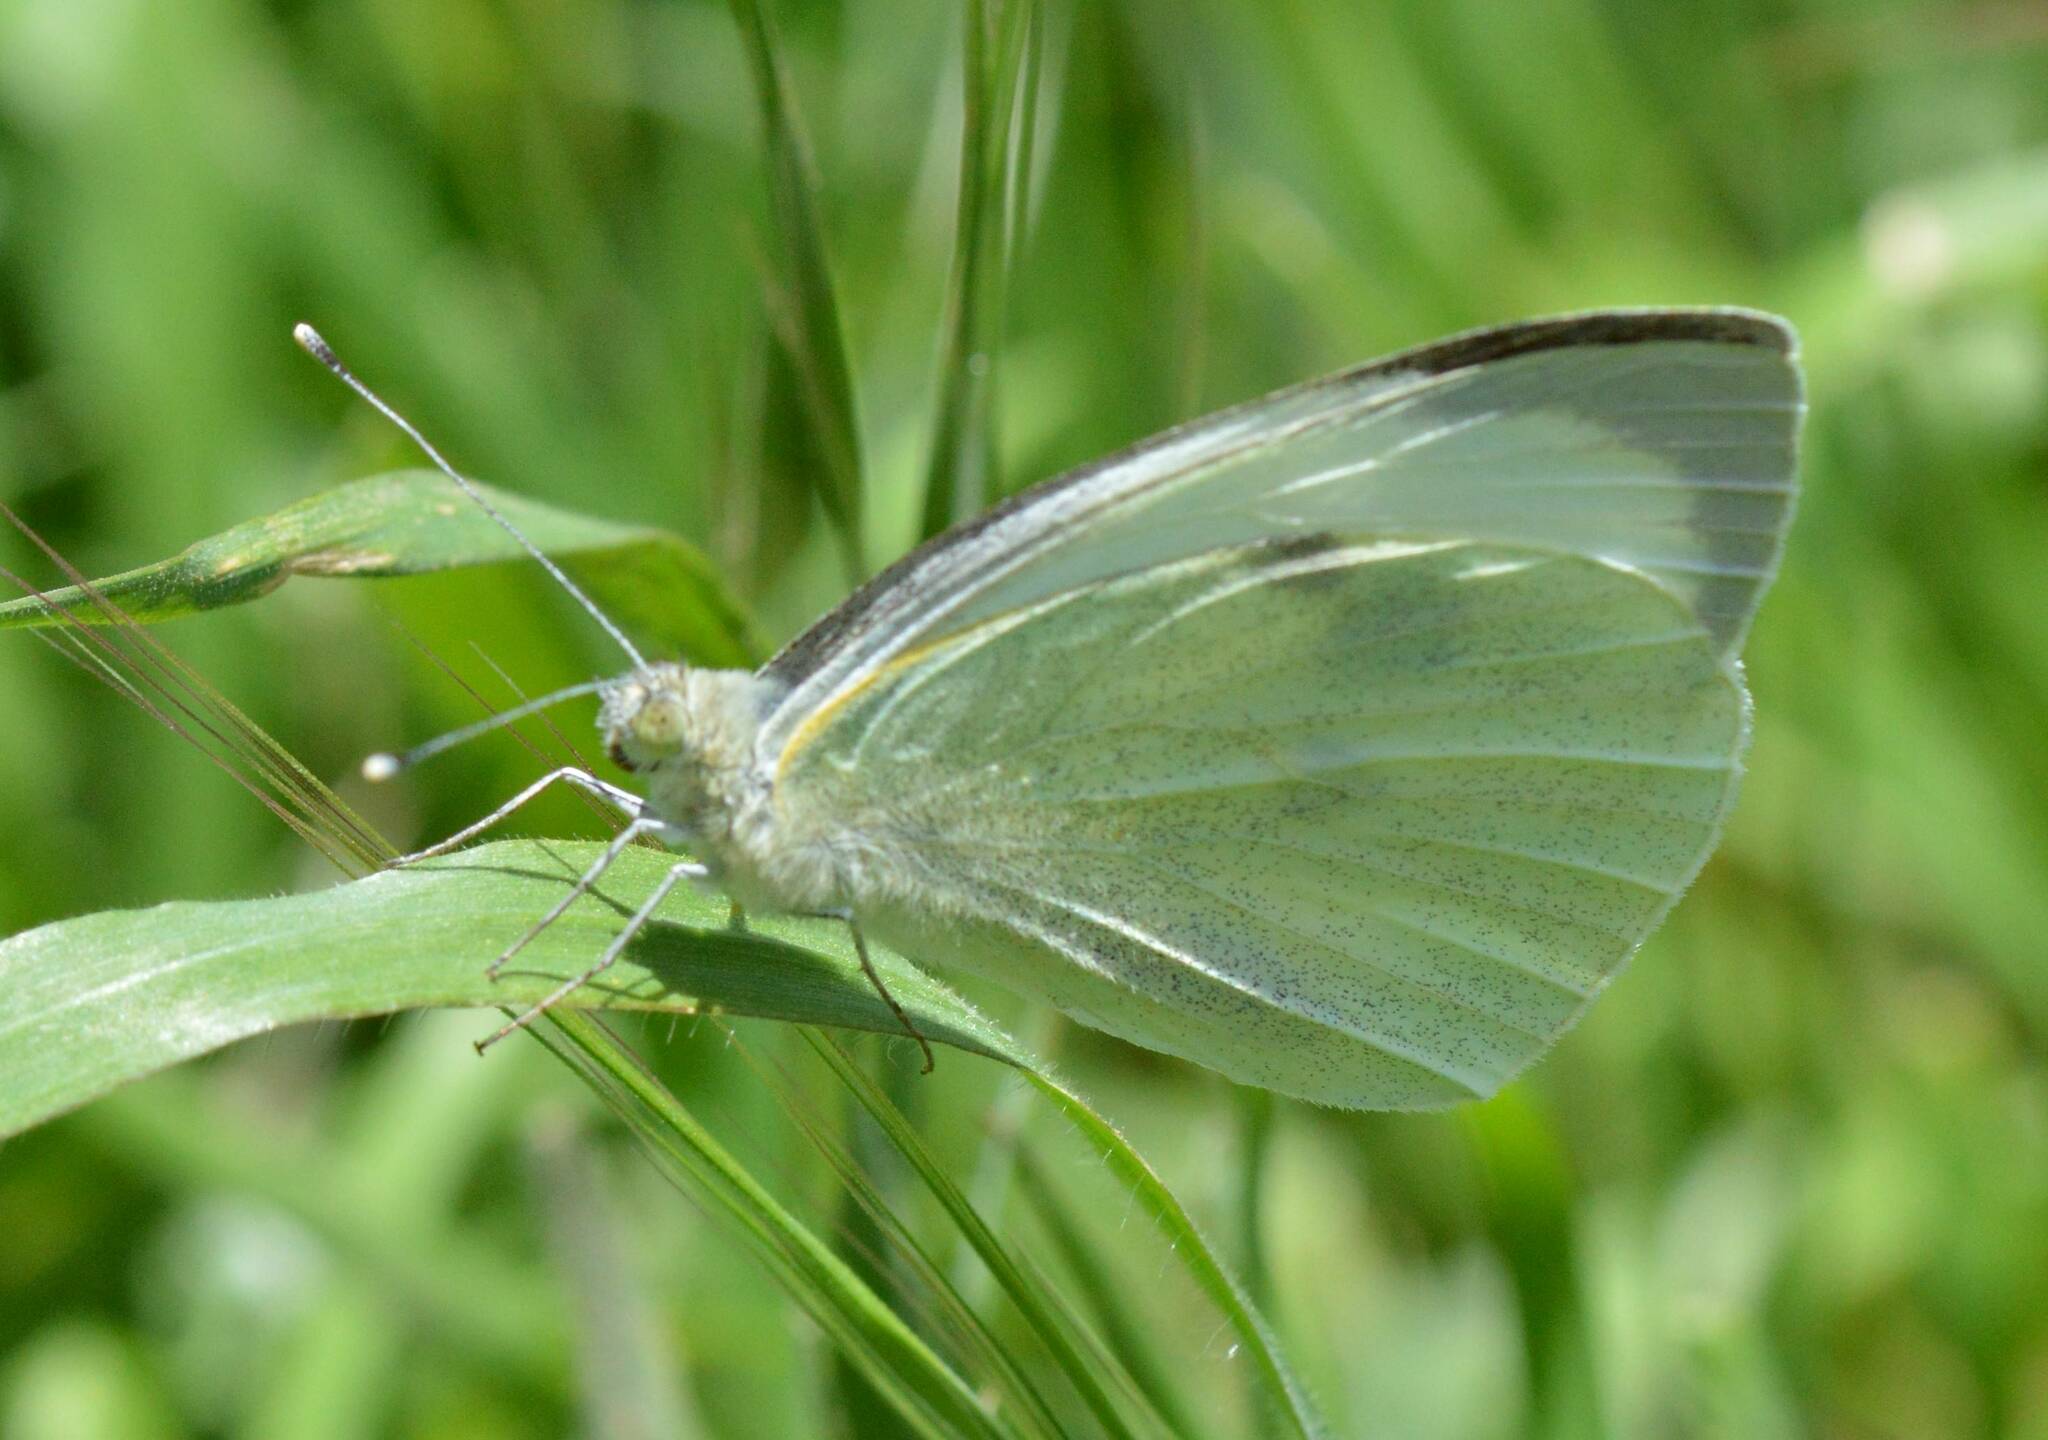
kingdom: Animalia
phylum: Arthropoda
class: Insecta
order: Lepidoptera
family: Pieridae
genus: Pieris
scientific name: Pieris brassicae
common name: Large white
